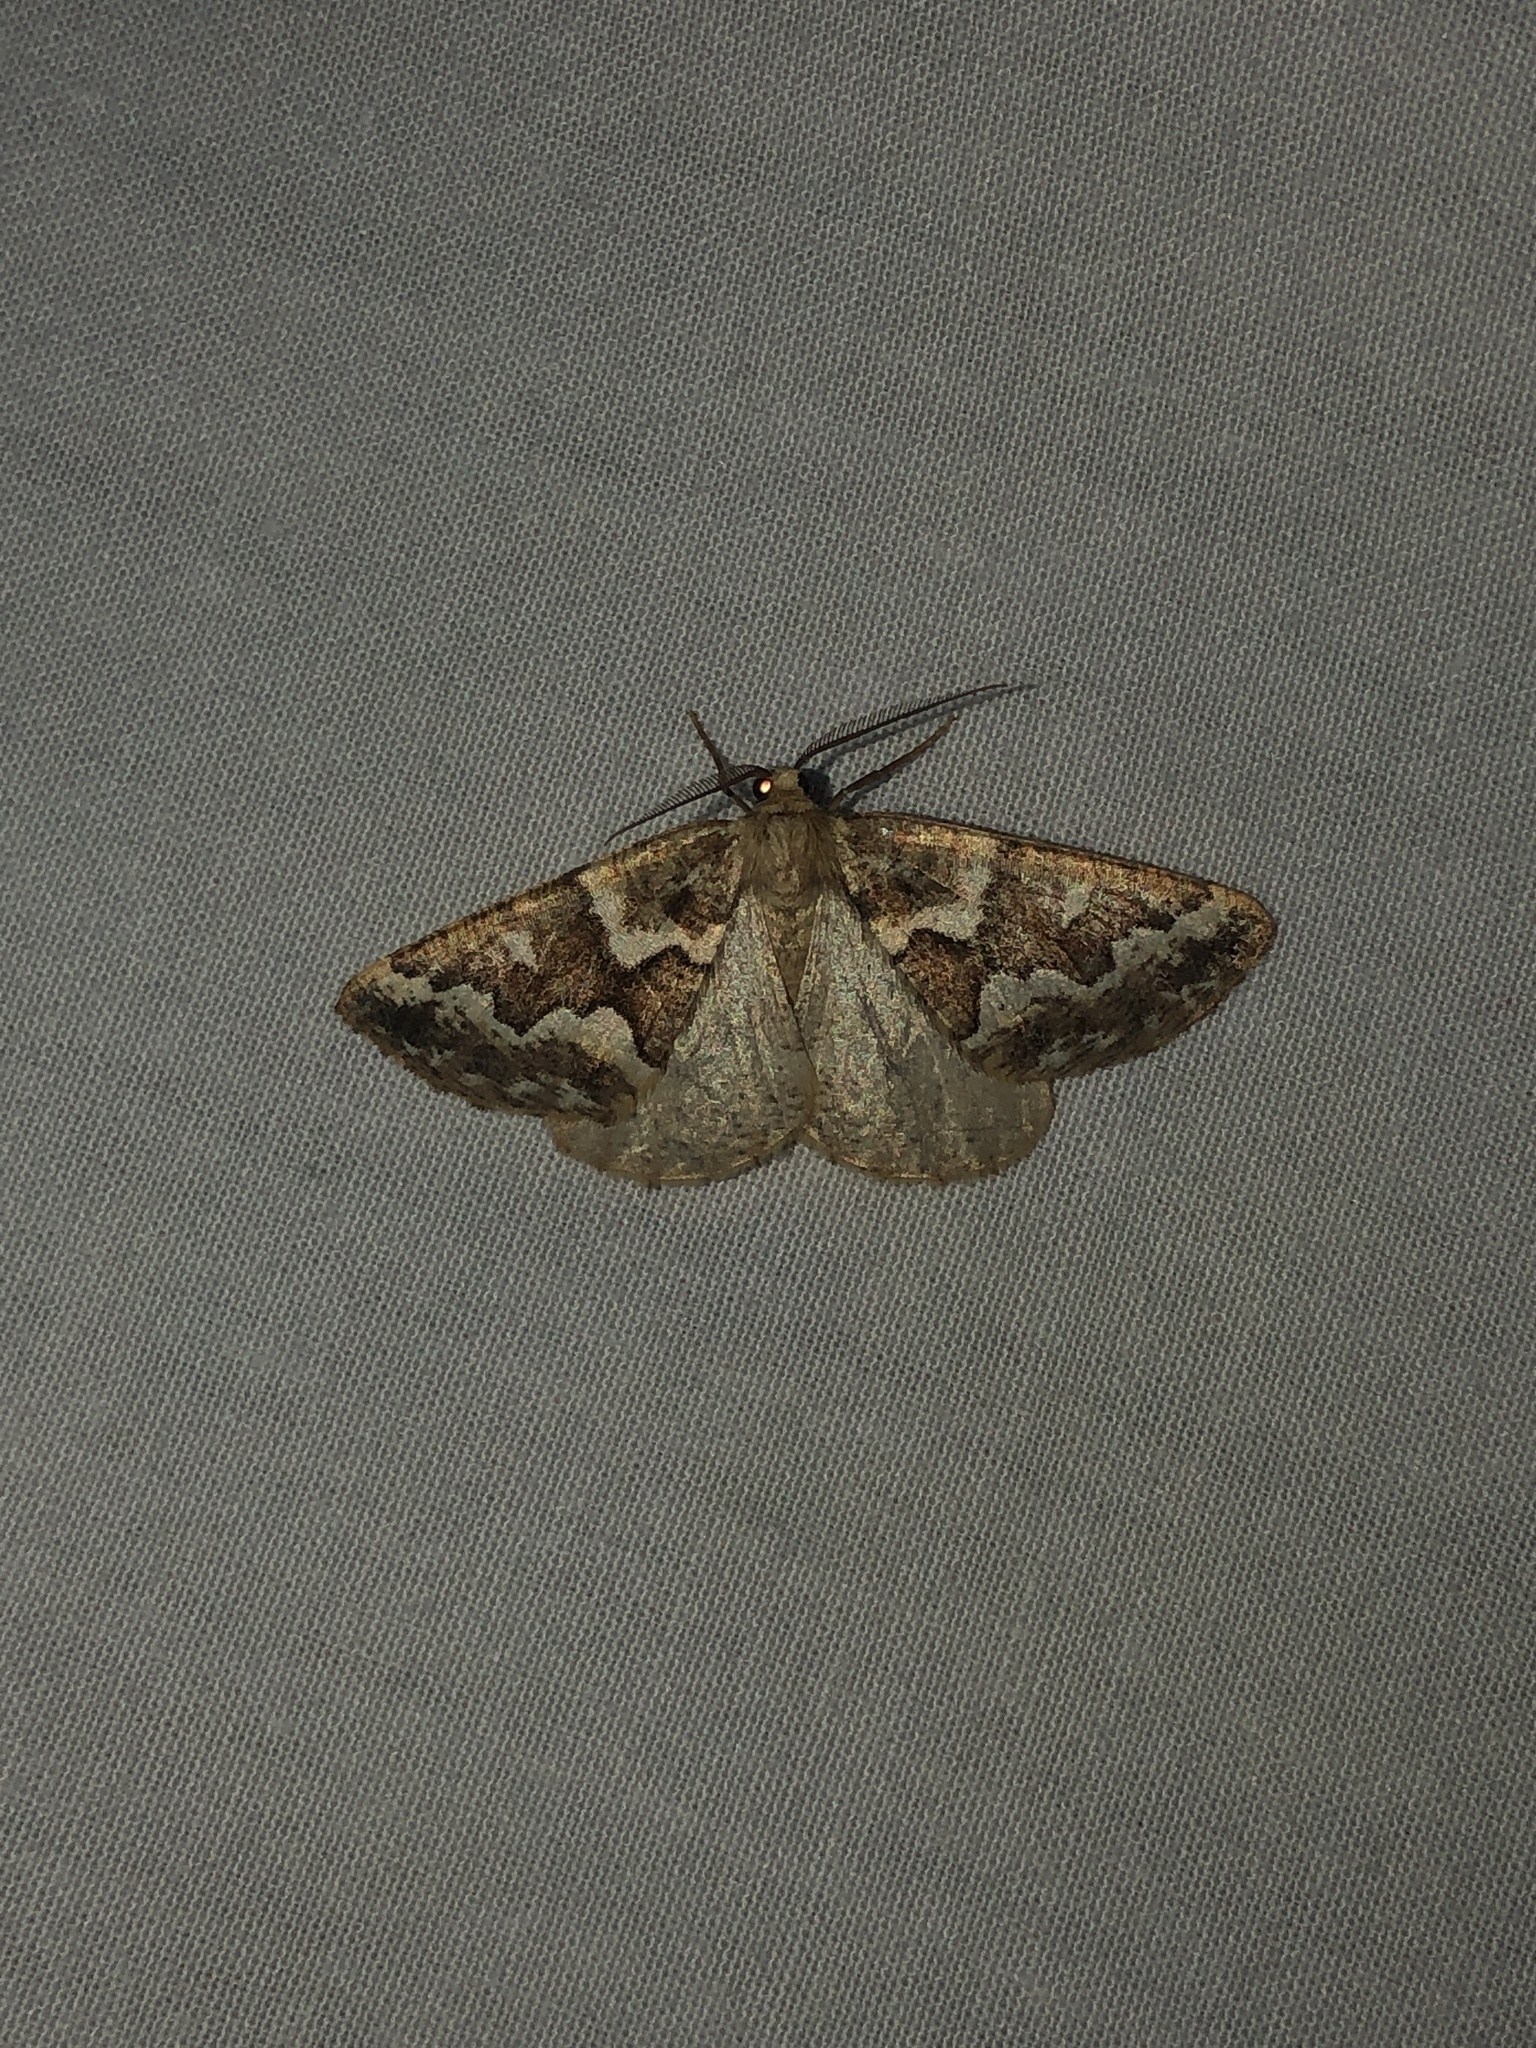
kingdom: Animalia
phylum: Arthropoda
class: Insecta
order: Lepidoptera
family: Geometridae
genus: Caripeta
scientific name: Caripeta divisata
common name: Gray spruce looper
